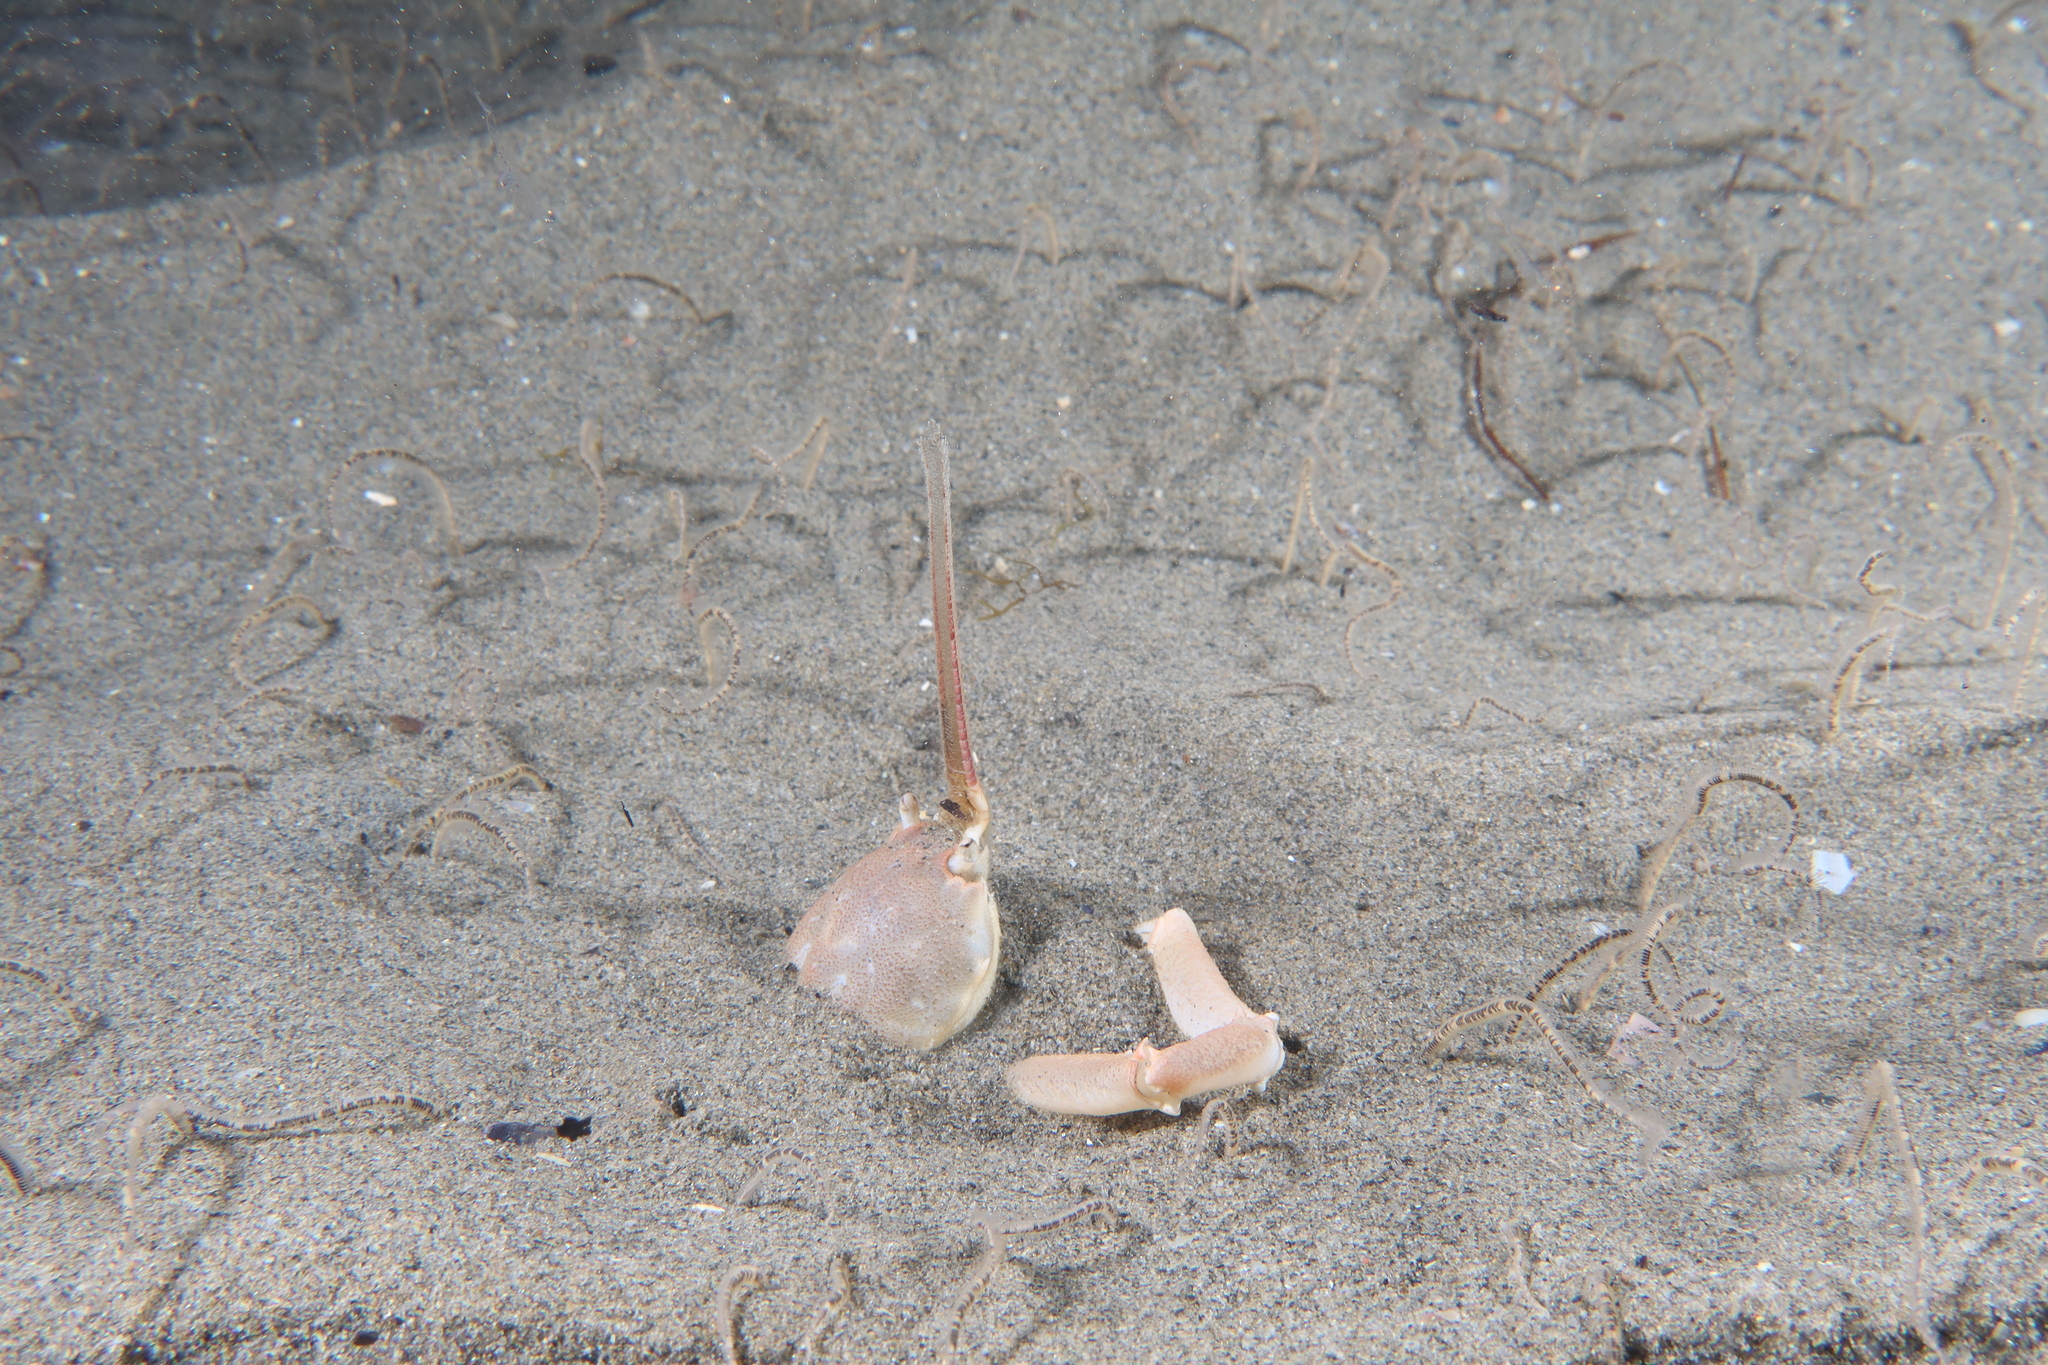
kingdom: Animalia
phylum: Arthropoda
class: Malacostraca
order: Decapoda
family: Corystidae
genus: Corystes
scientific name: Corystes cassivelaunus
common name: Masked crab
